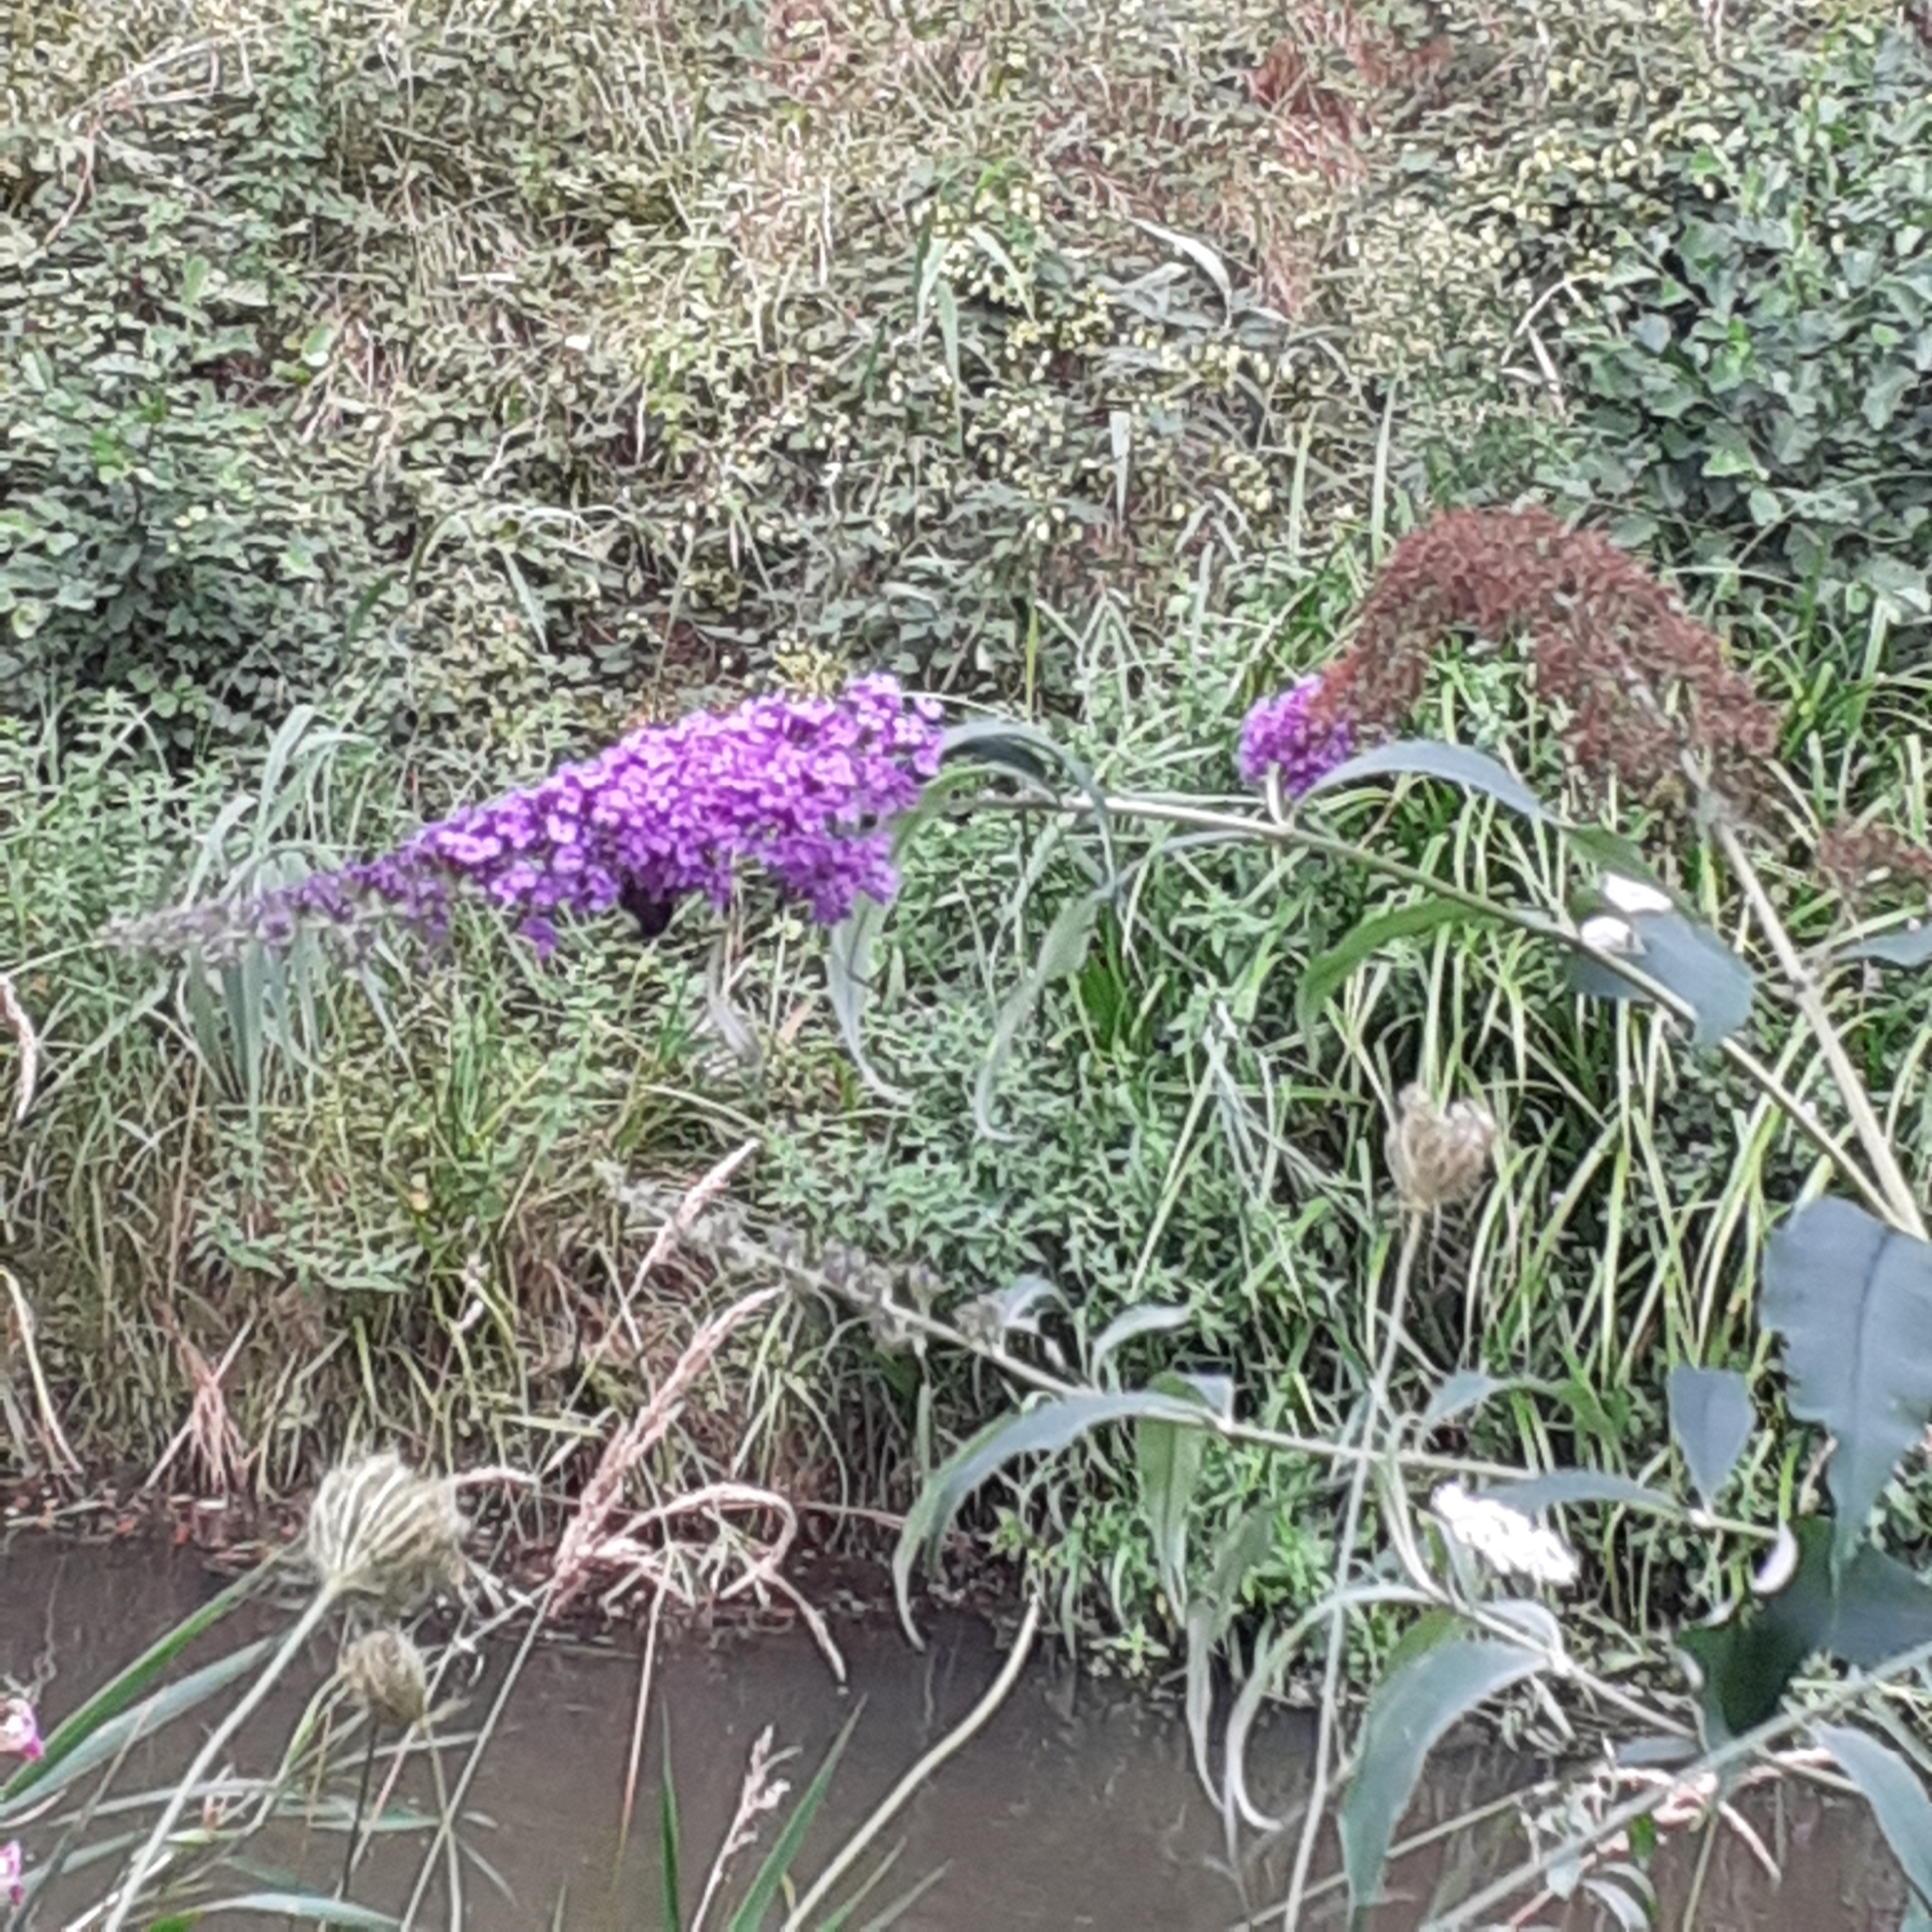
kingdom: Plantae
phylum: Tracheophyta
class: Magnoliopsida
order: Lamiales
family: Scrophulariaceae
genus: Buddleja
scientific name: Buddleja davidii
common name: Butterfly-bush
